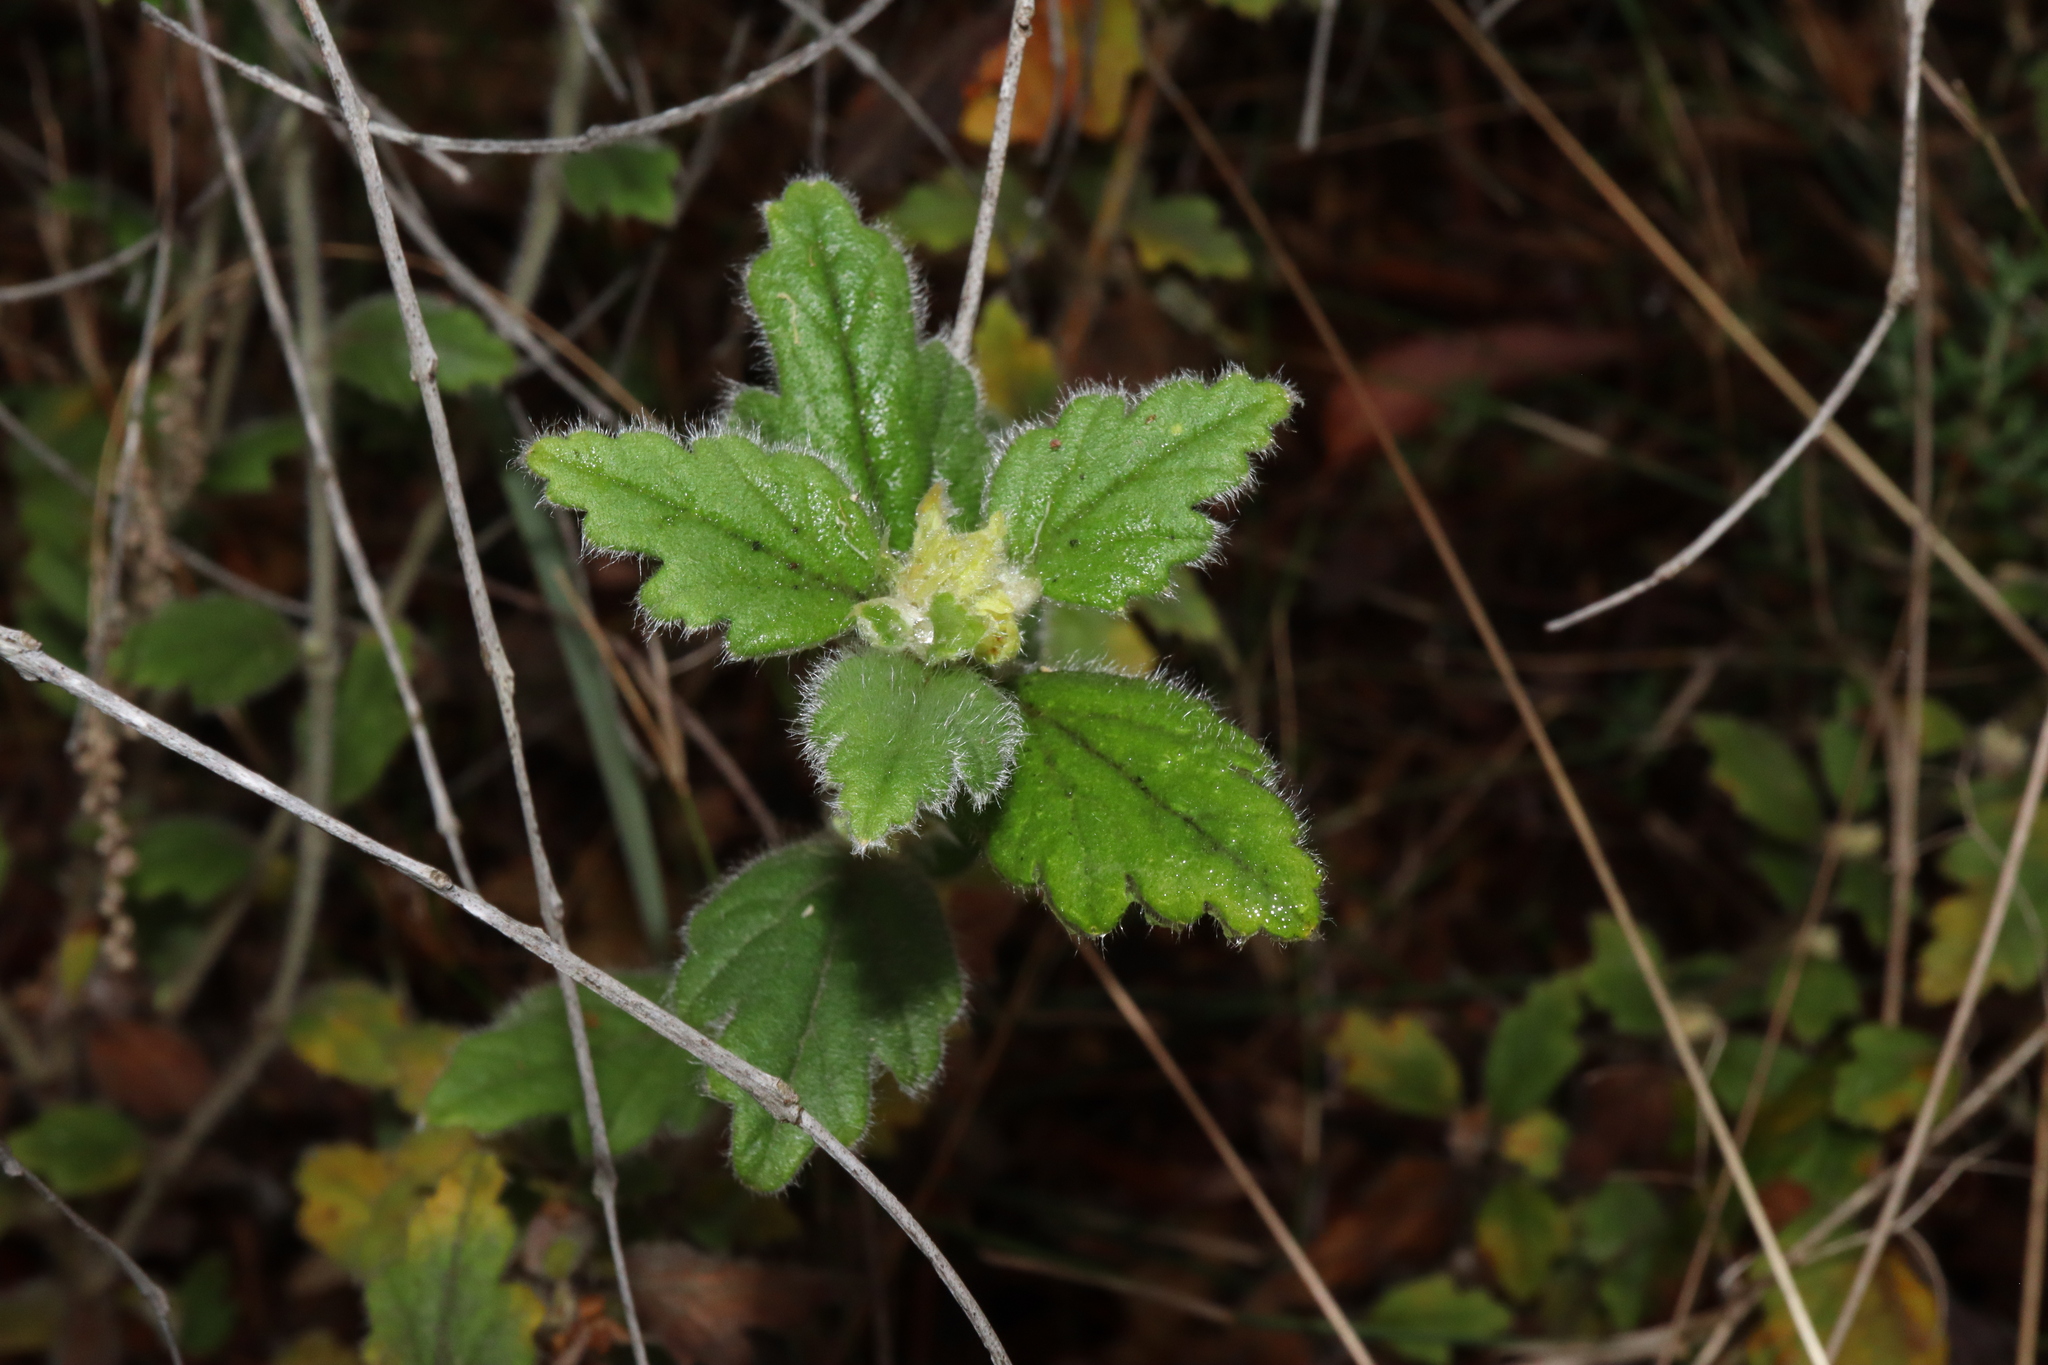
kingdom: Plantae
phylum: Tracheophyta
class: Magnoliopsida
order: Apiales
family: Apiaceae
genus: Xanthosia
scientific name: Xanthosia pilosa
